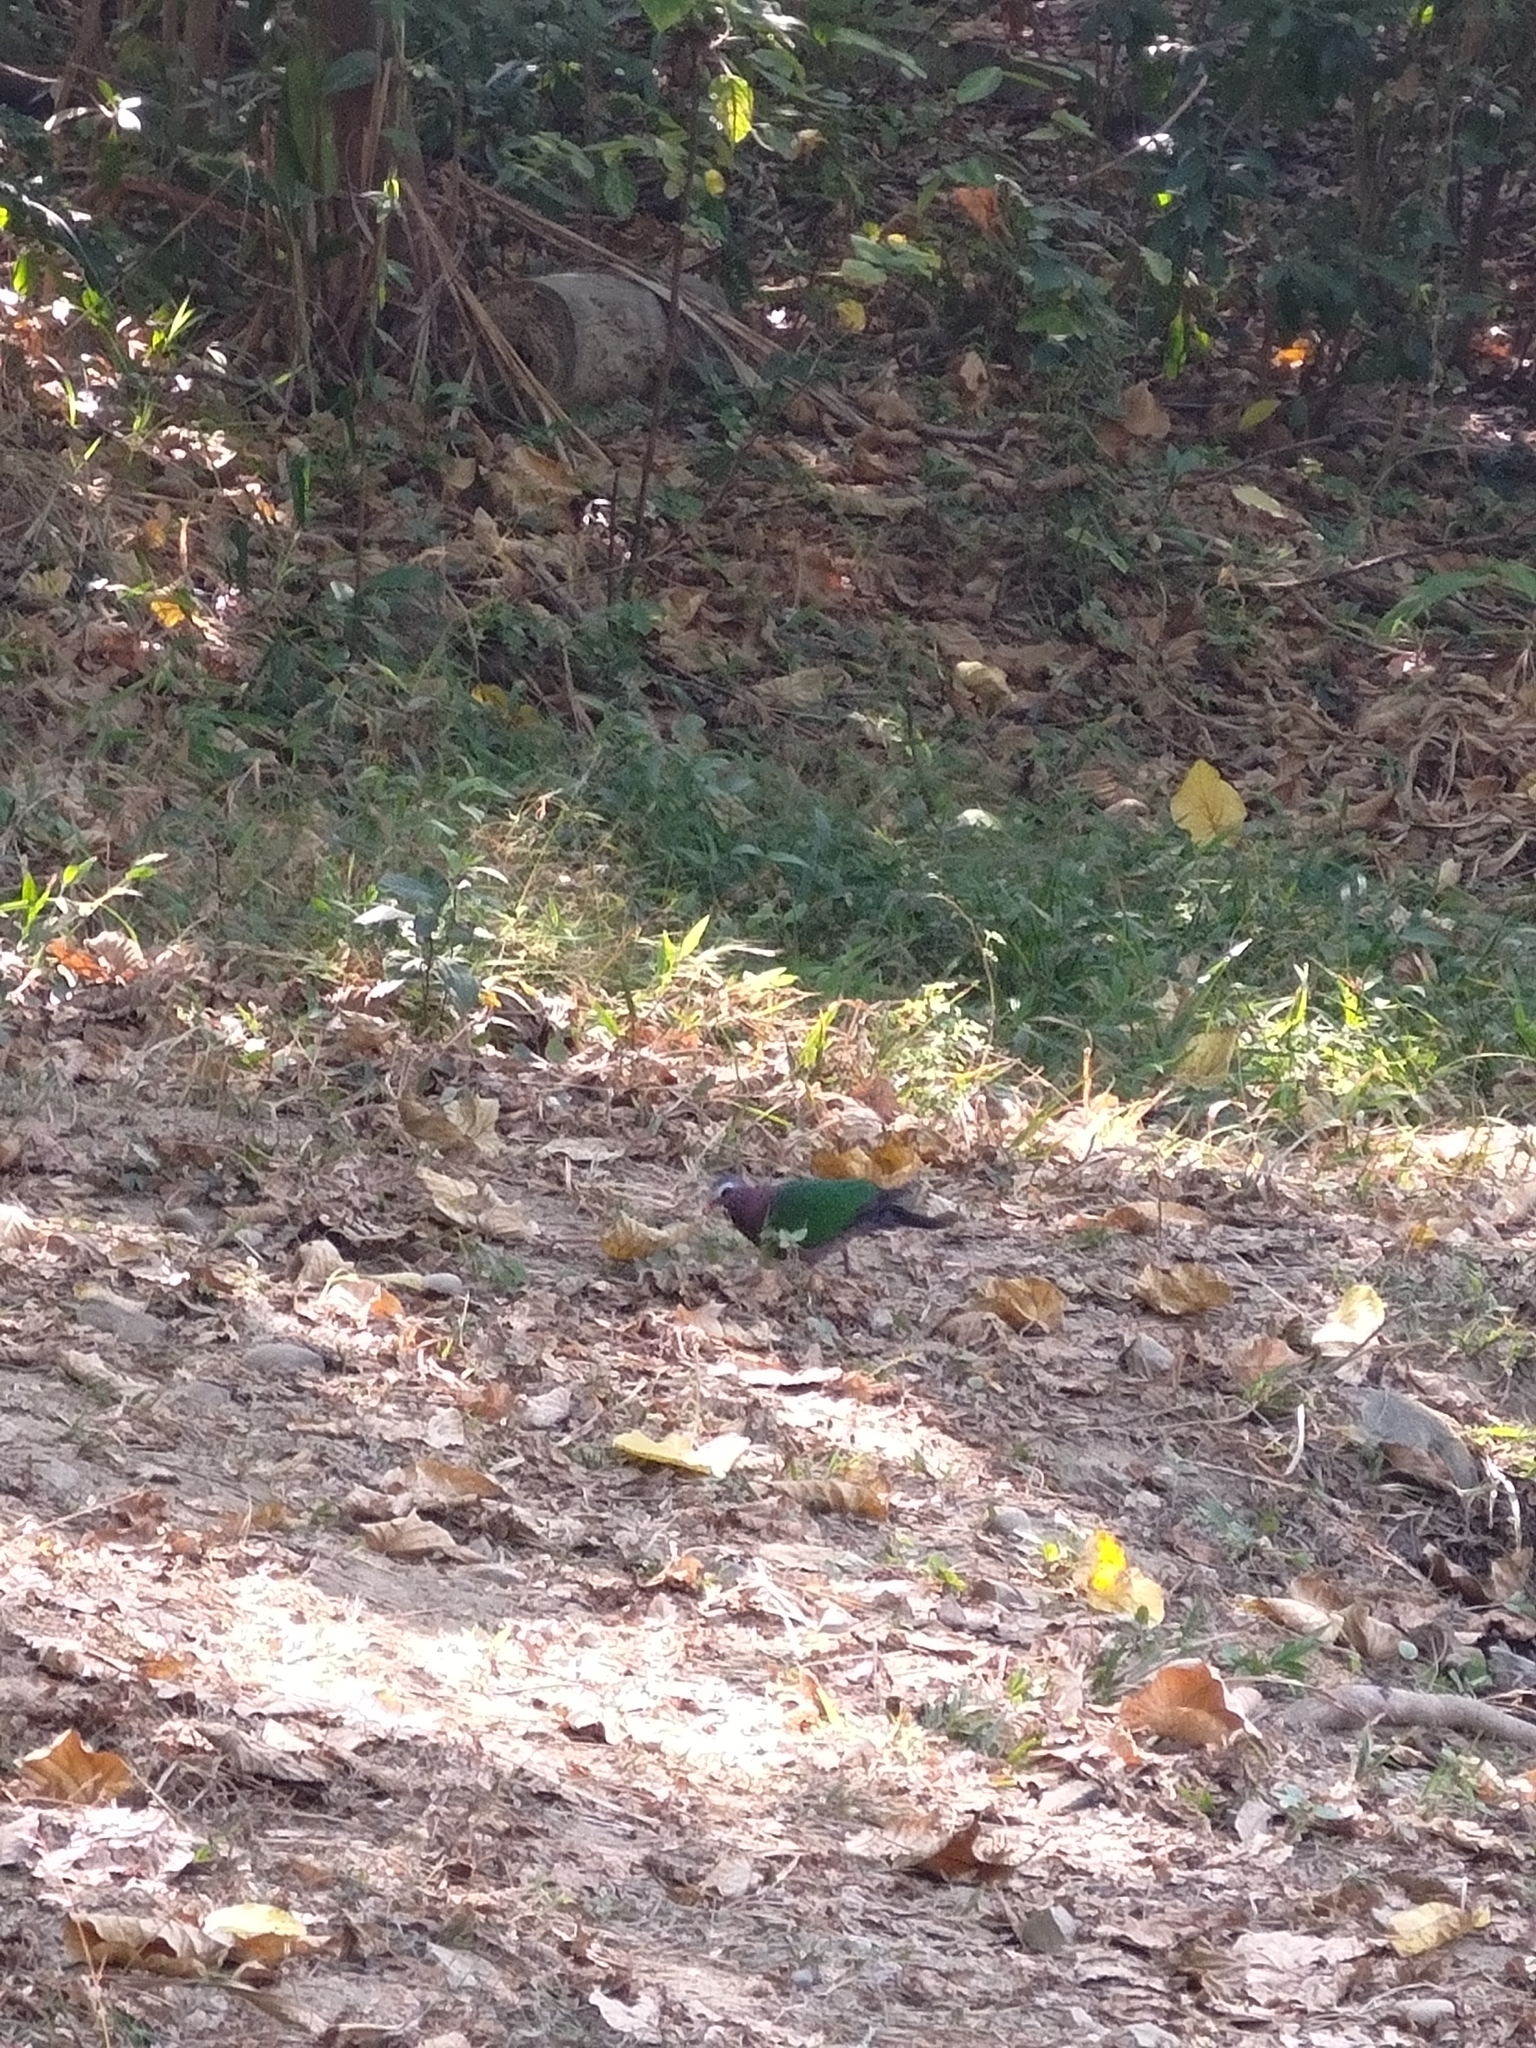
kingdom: Animalia
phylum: Chordata
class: Aves
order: Columbiformes
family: Columbidae
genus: Chalcophaps
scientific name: Chalcophaps indica
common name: Common emerald dove
